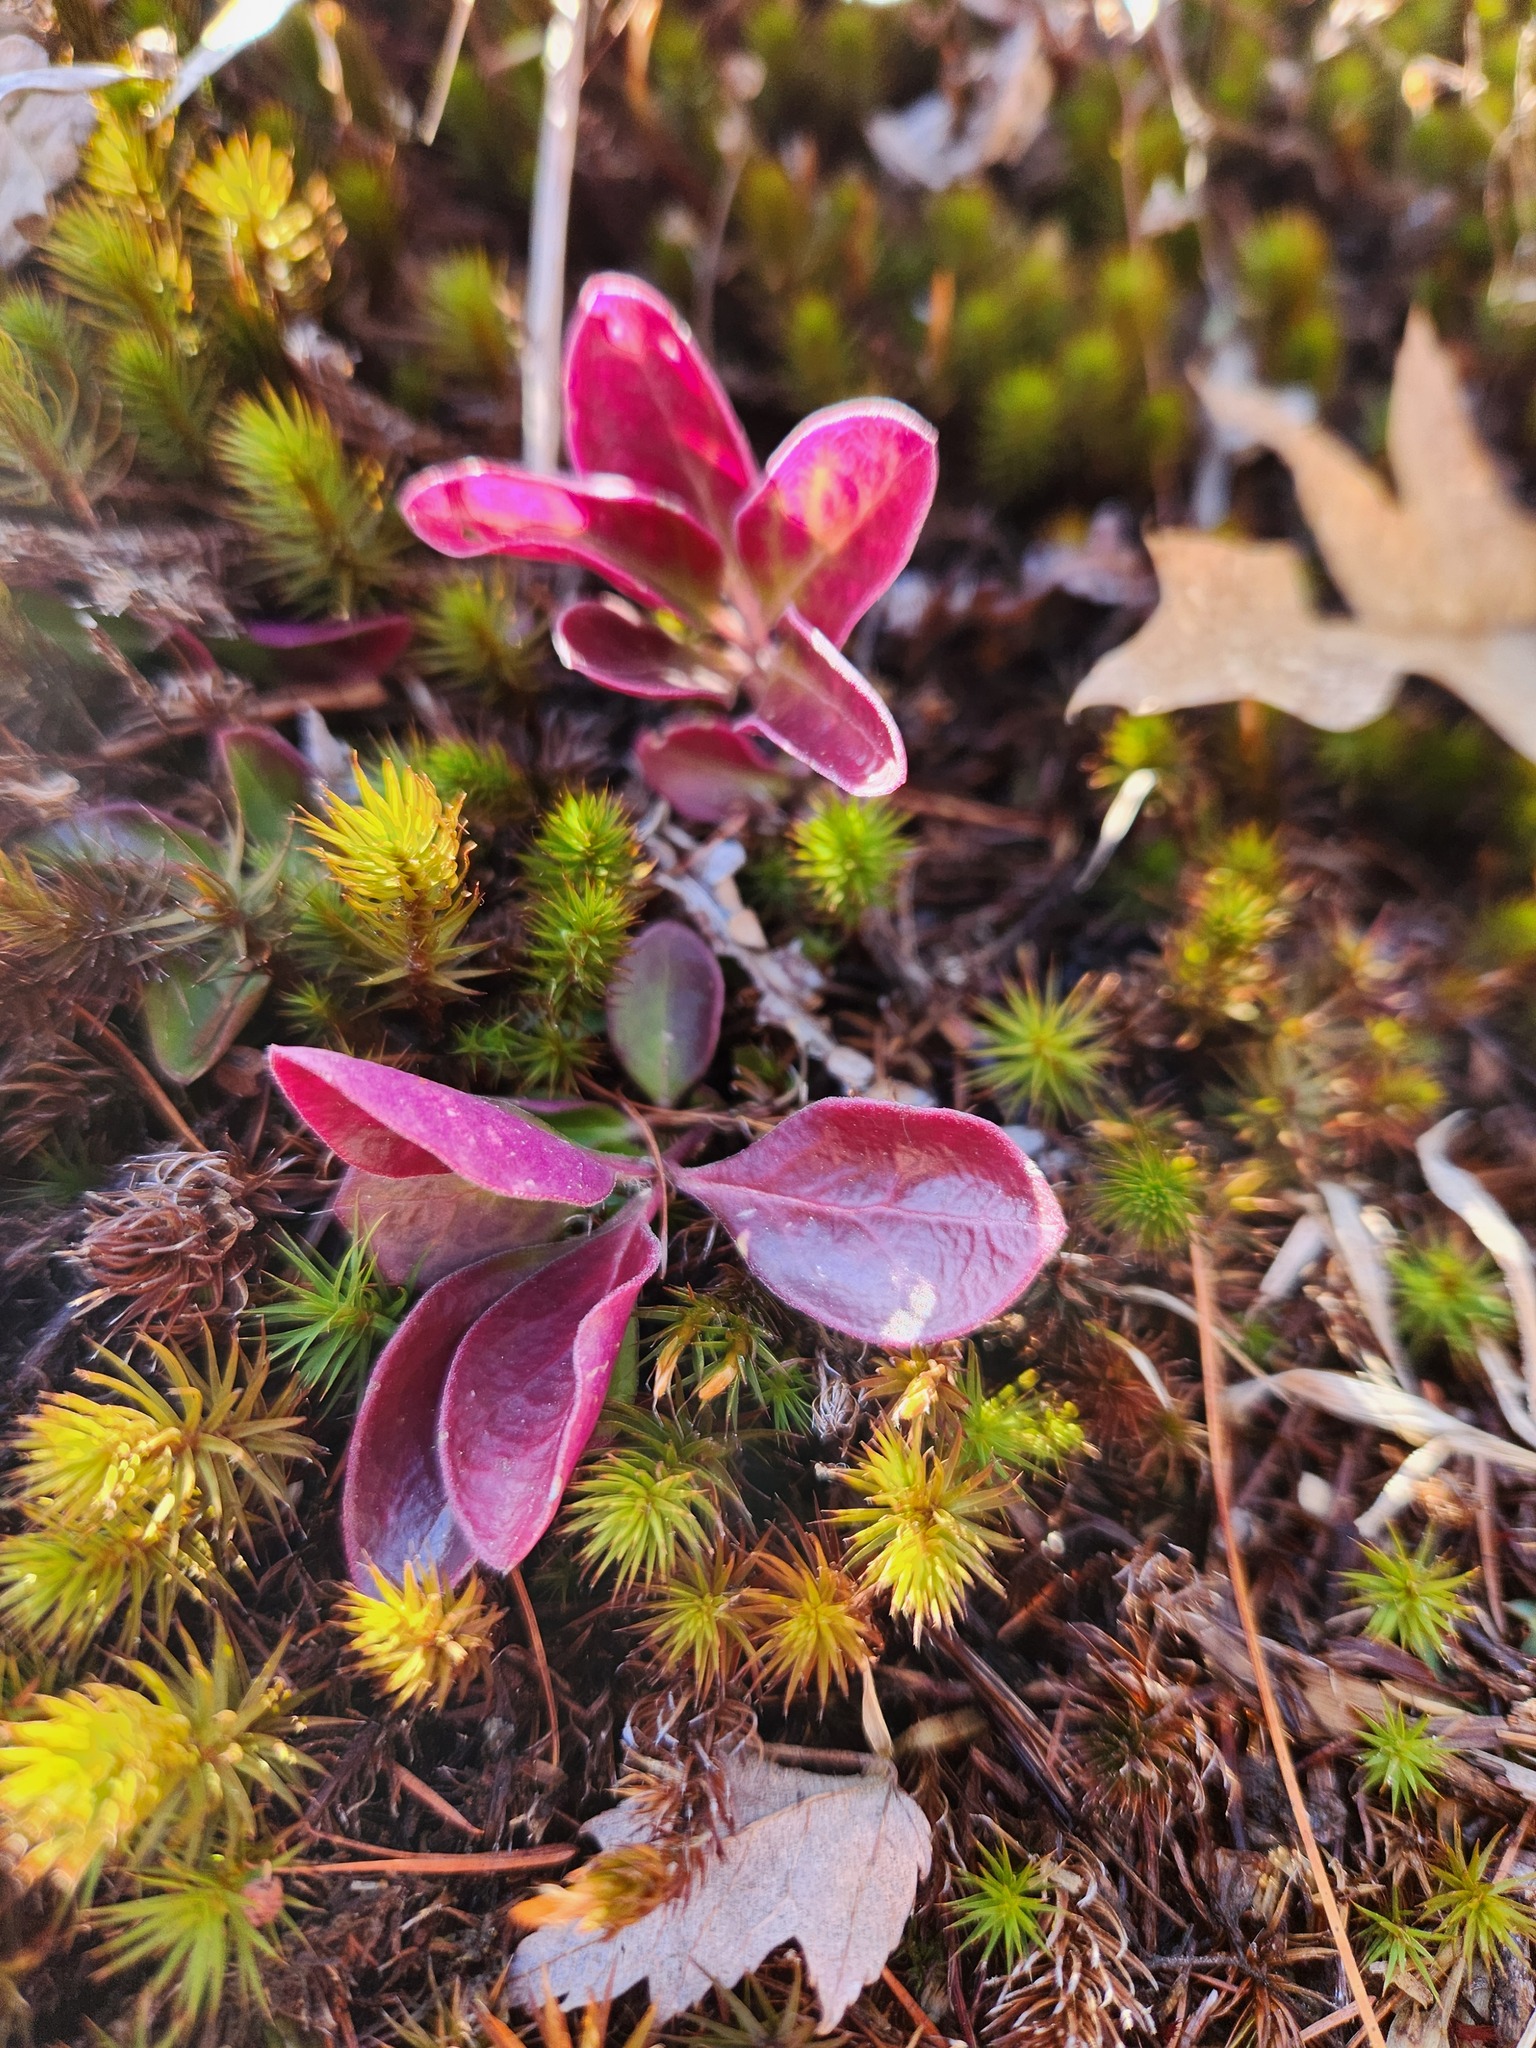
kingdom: Plantae
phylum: Tracheophyta
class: Magnoliopsida
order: Fabales
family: Polygalaceae
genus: Polygaloides
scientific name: Polygaloides paucifolia
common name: Bird-on-the-wing
